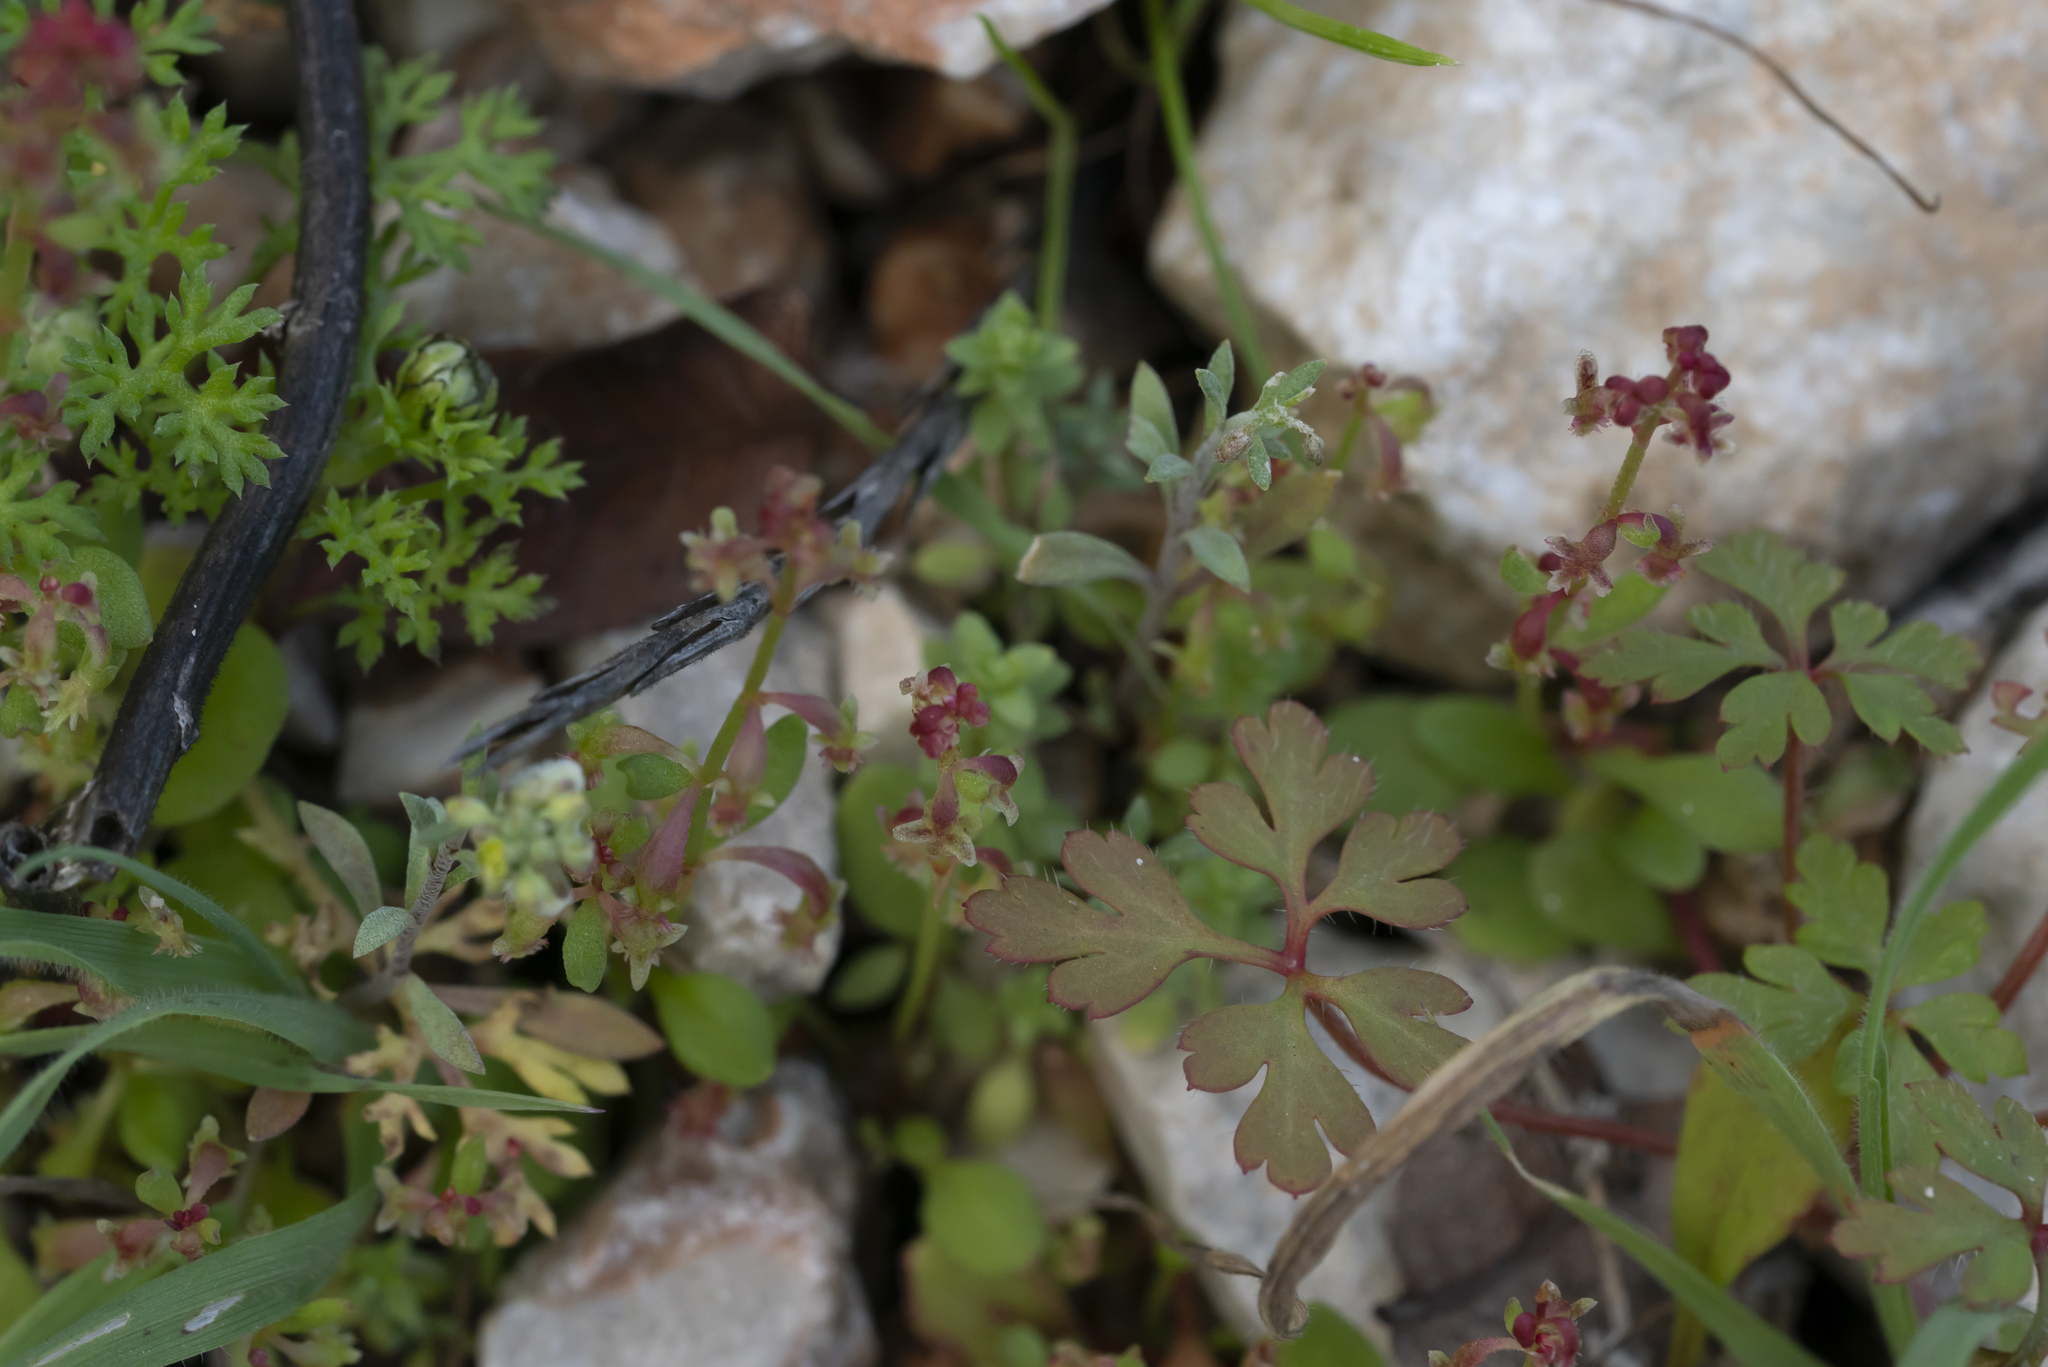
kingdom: Plantae
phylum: Tracheophyta
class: Magnoliopsida
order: Caryophyllales
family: Polygonaceae
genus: Rumex
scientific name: Rumex bucephalophorus
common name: Red dock
